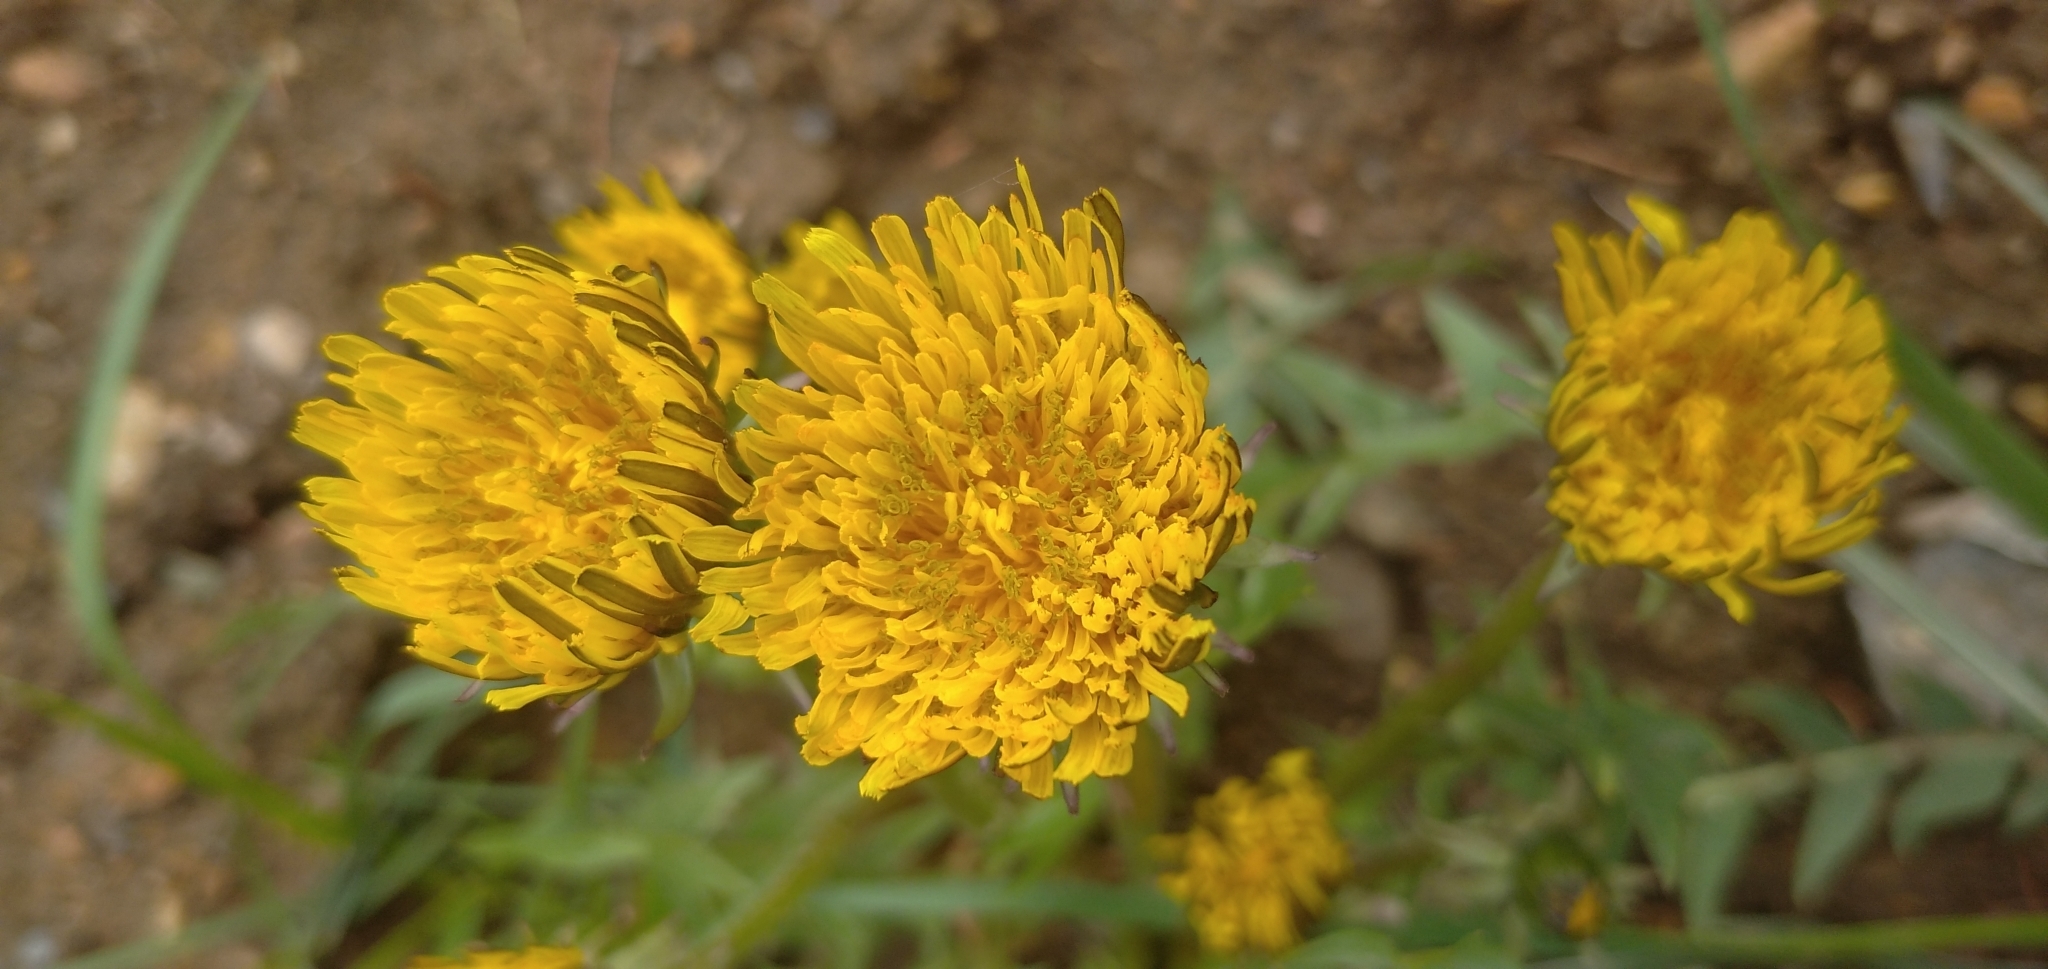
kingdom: Plantae
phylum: Tracheophyta
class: Magnoliopsida
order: Asterales
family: Asteraceae
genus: Taraxacum
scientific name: Taraxacum officinale
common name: Common dandelion
